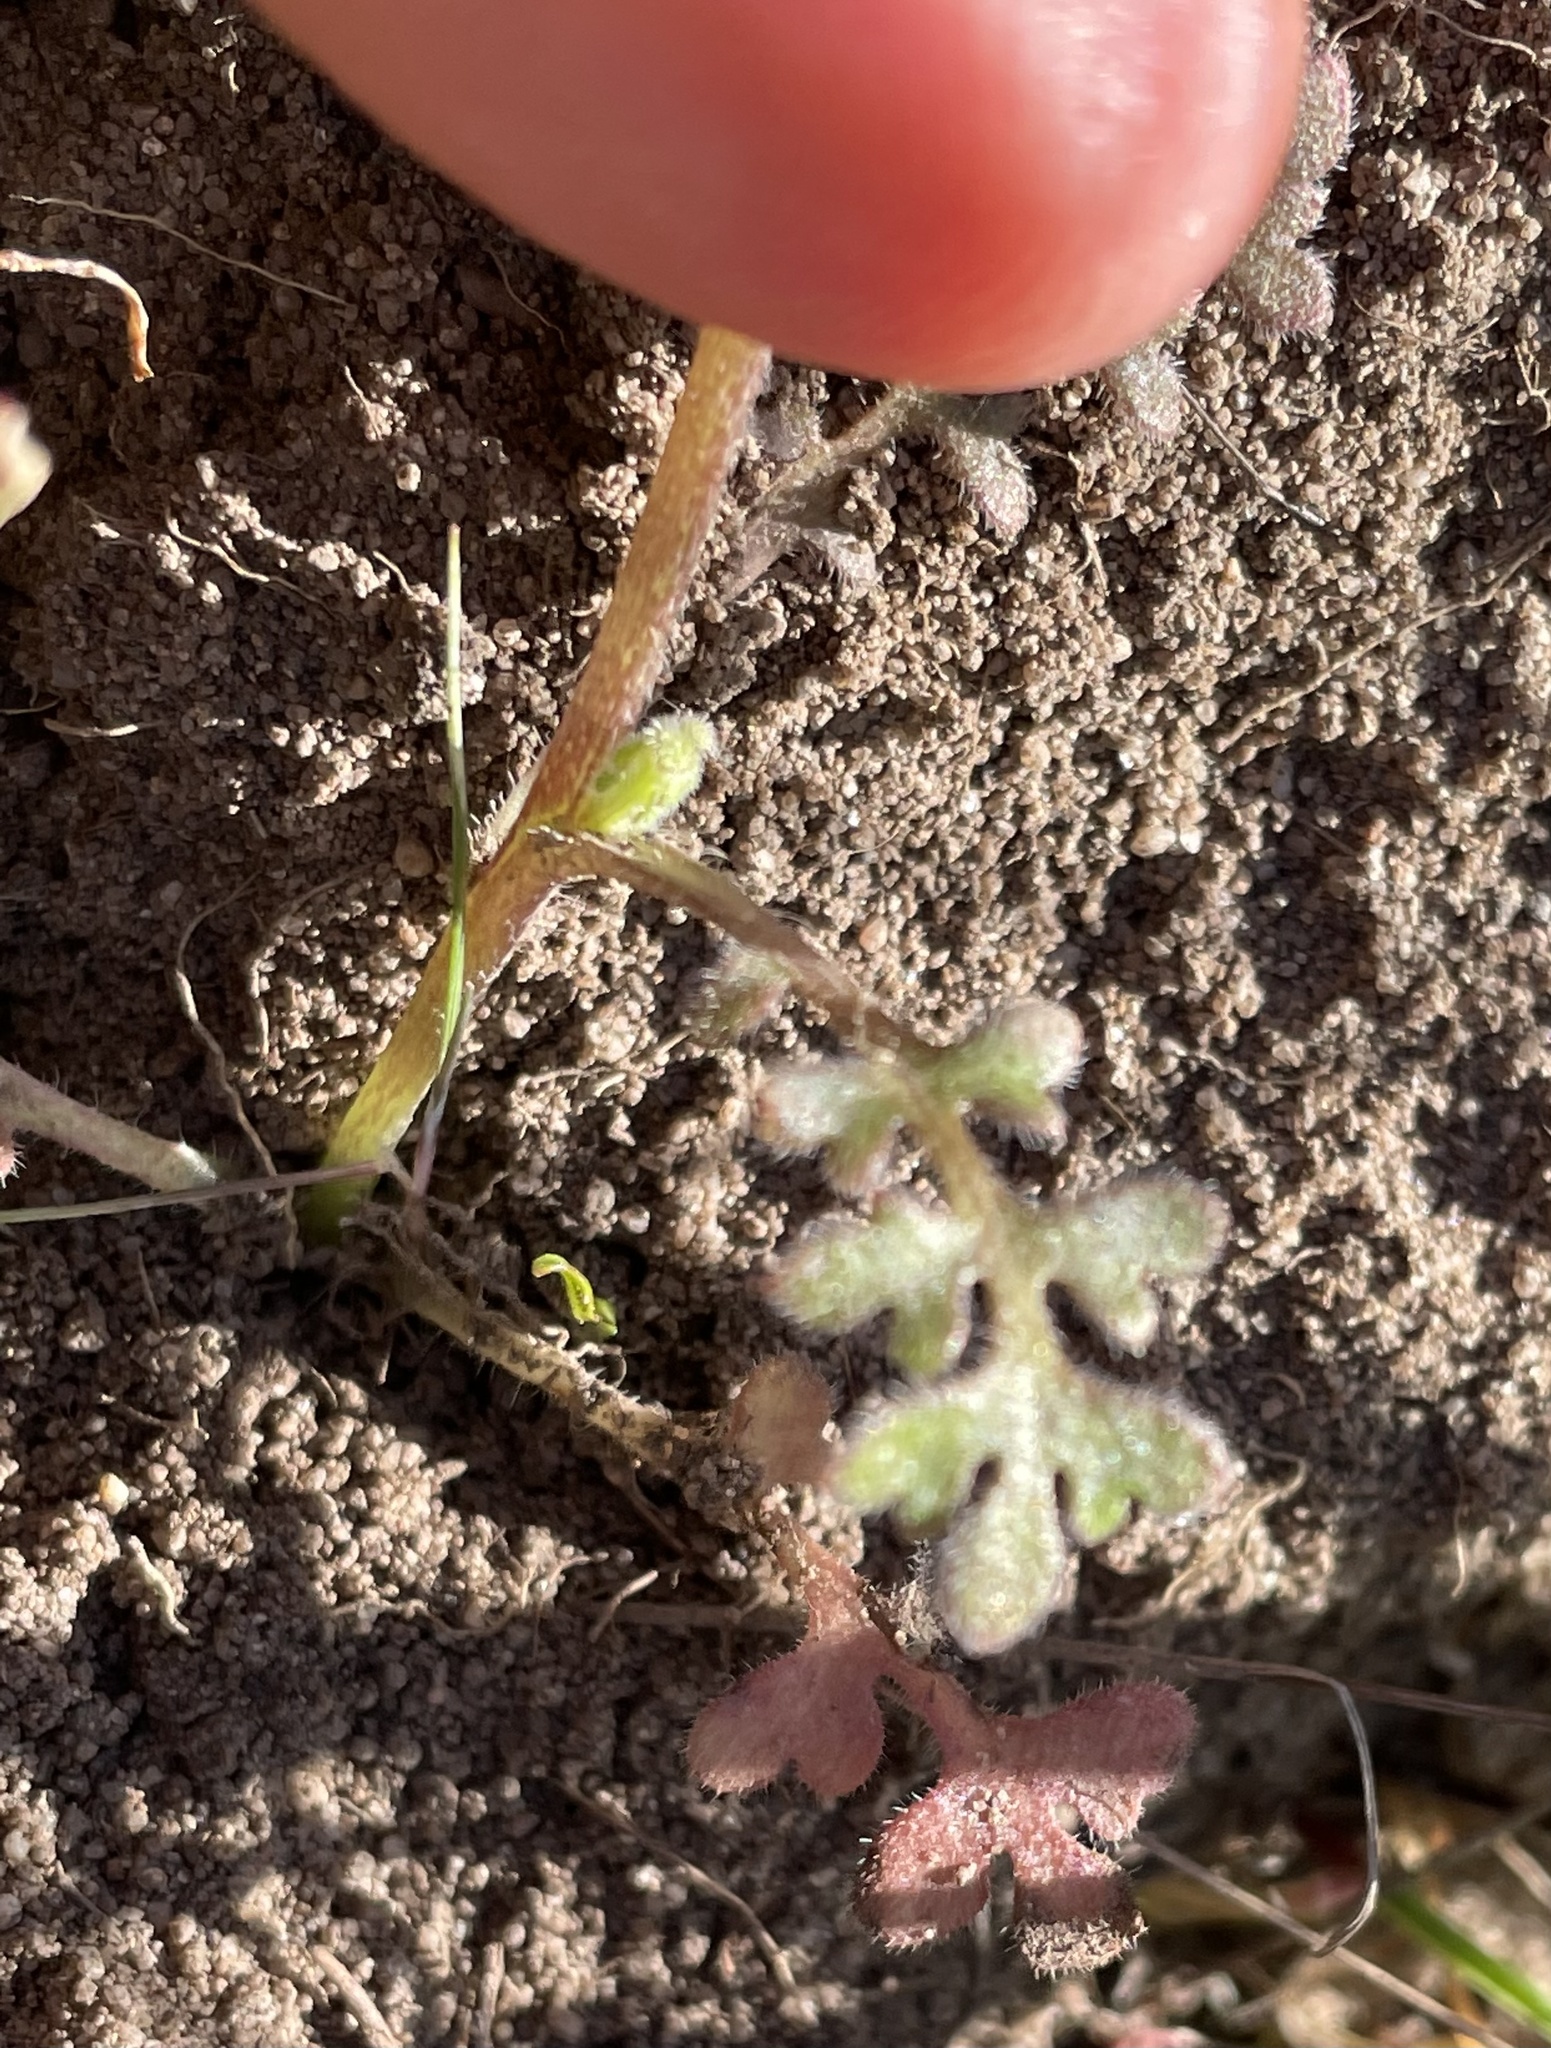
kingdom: Plantae
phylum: Tracheophyta
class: Magnoliopsida
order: Boraginales
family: Hydrophyllaceae
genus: Nemophila
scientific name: Nemophila menziesii
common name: Baby's-blue-eyes
